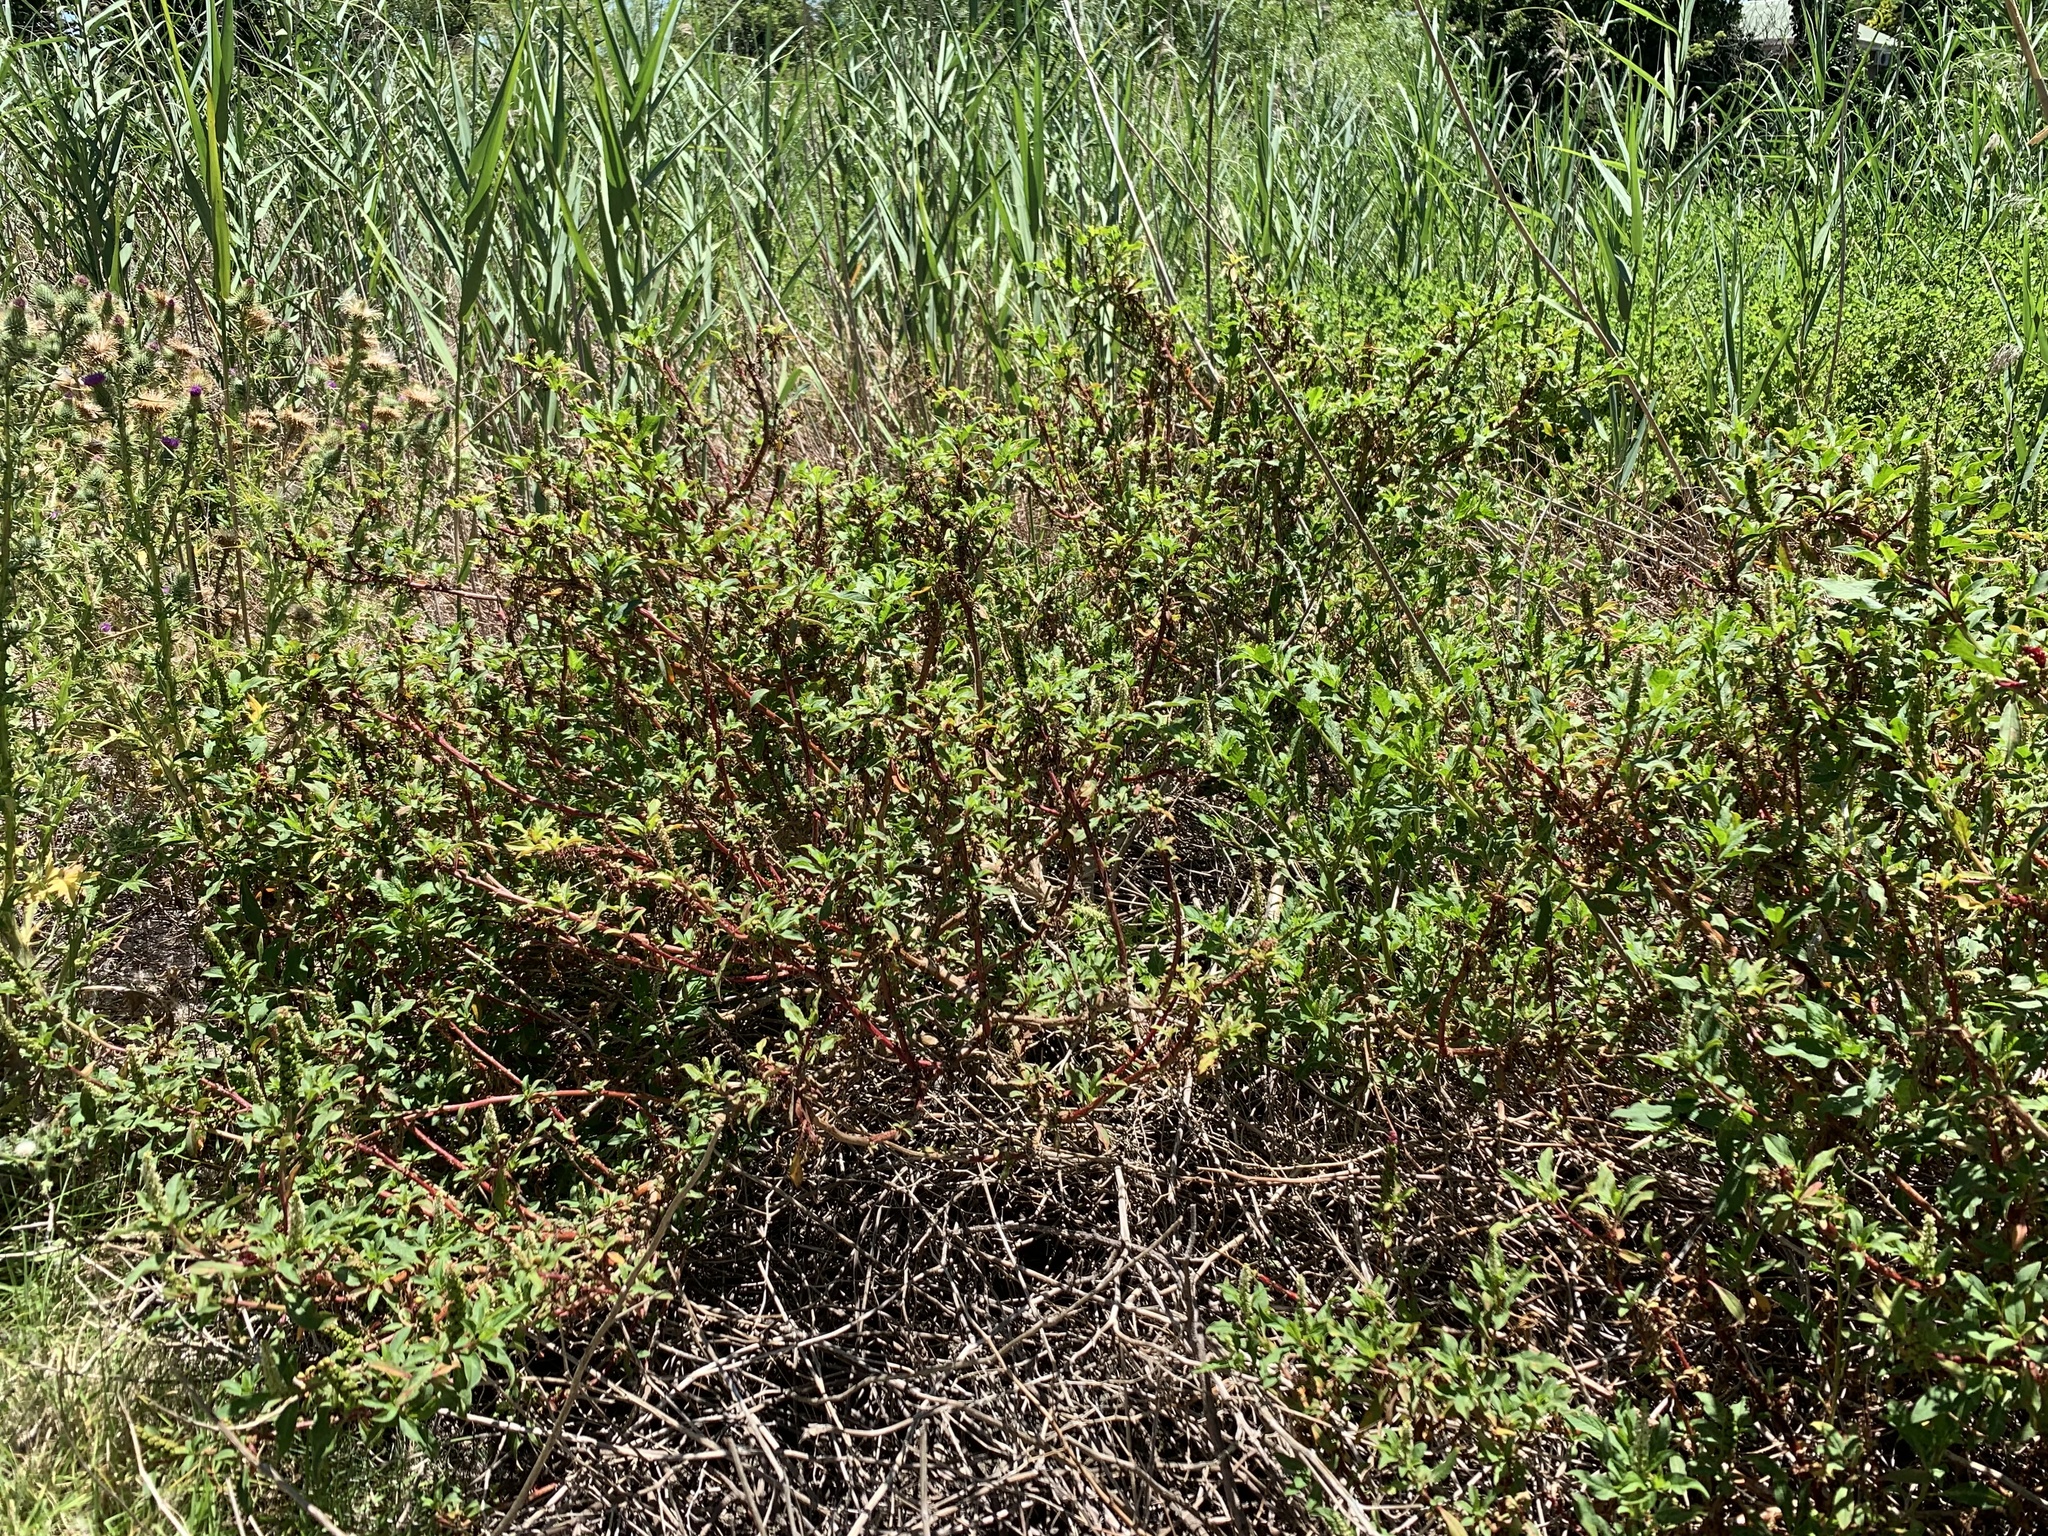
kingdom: Plantae
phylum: Tracheophyta
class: Magnoliopsida
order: Caryophyllales
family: Phytolaccaceae
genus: Phytolacca
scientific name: Phytolacca icosandra
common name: Button pokeweed
